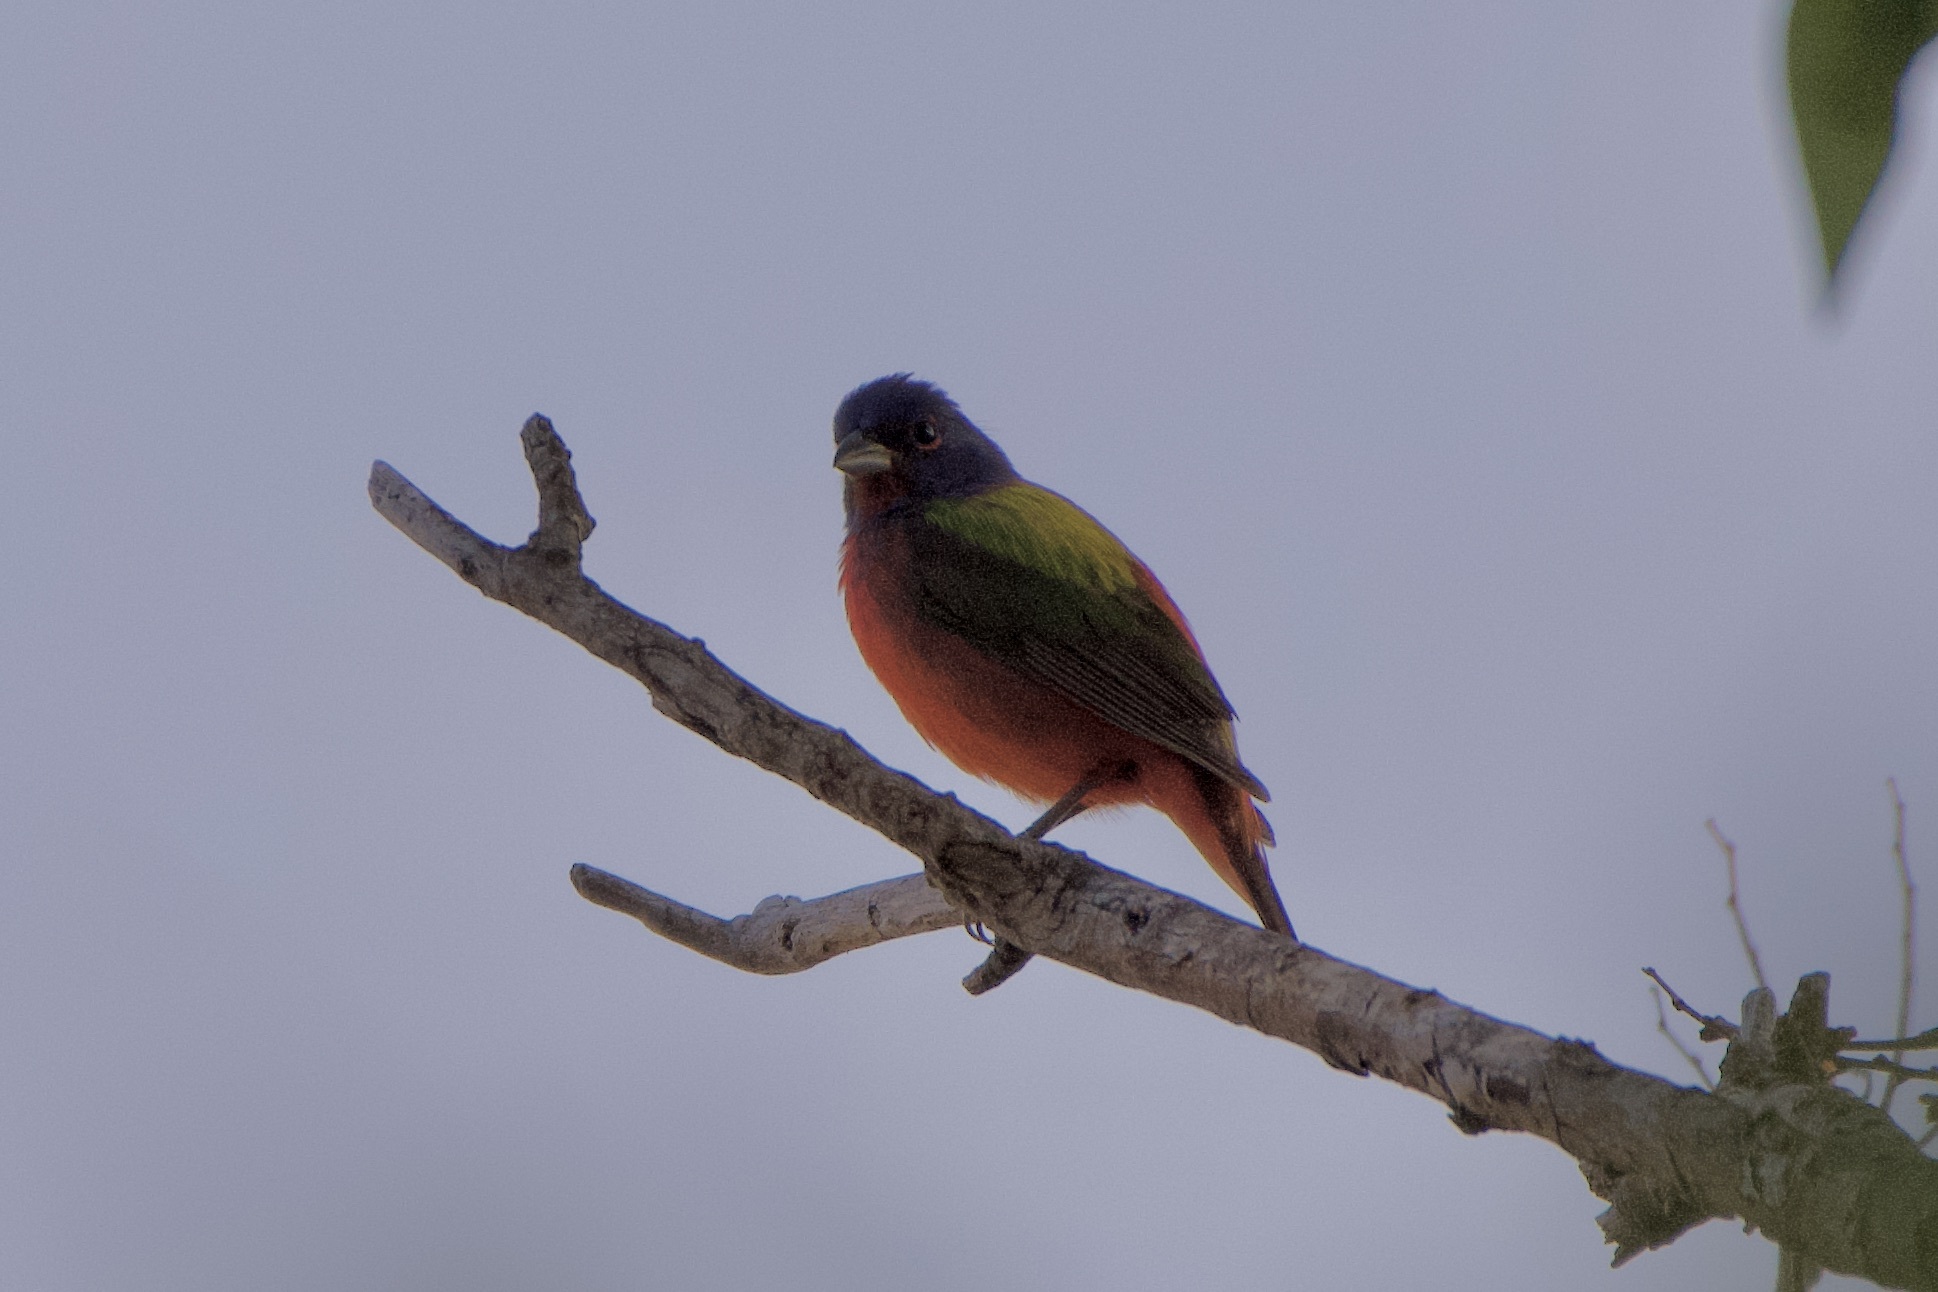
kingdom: Animalia
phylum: Chordata
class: Aves
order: Passeriformes
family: Cardinalidae
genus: Passerina
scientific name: Passerina ciris
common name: Painted bunting
